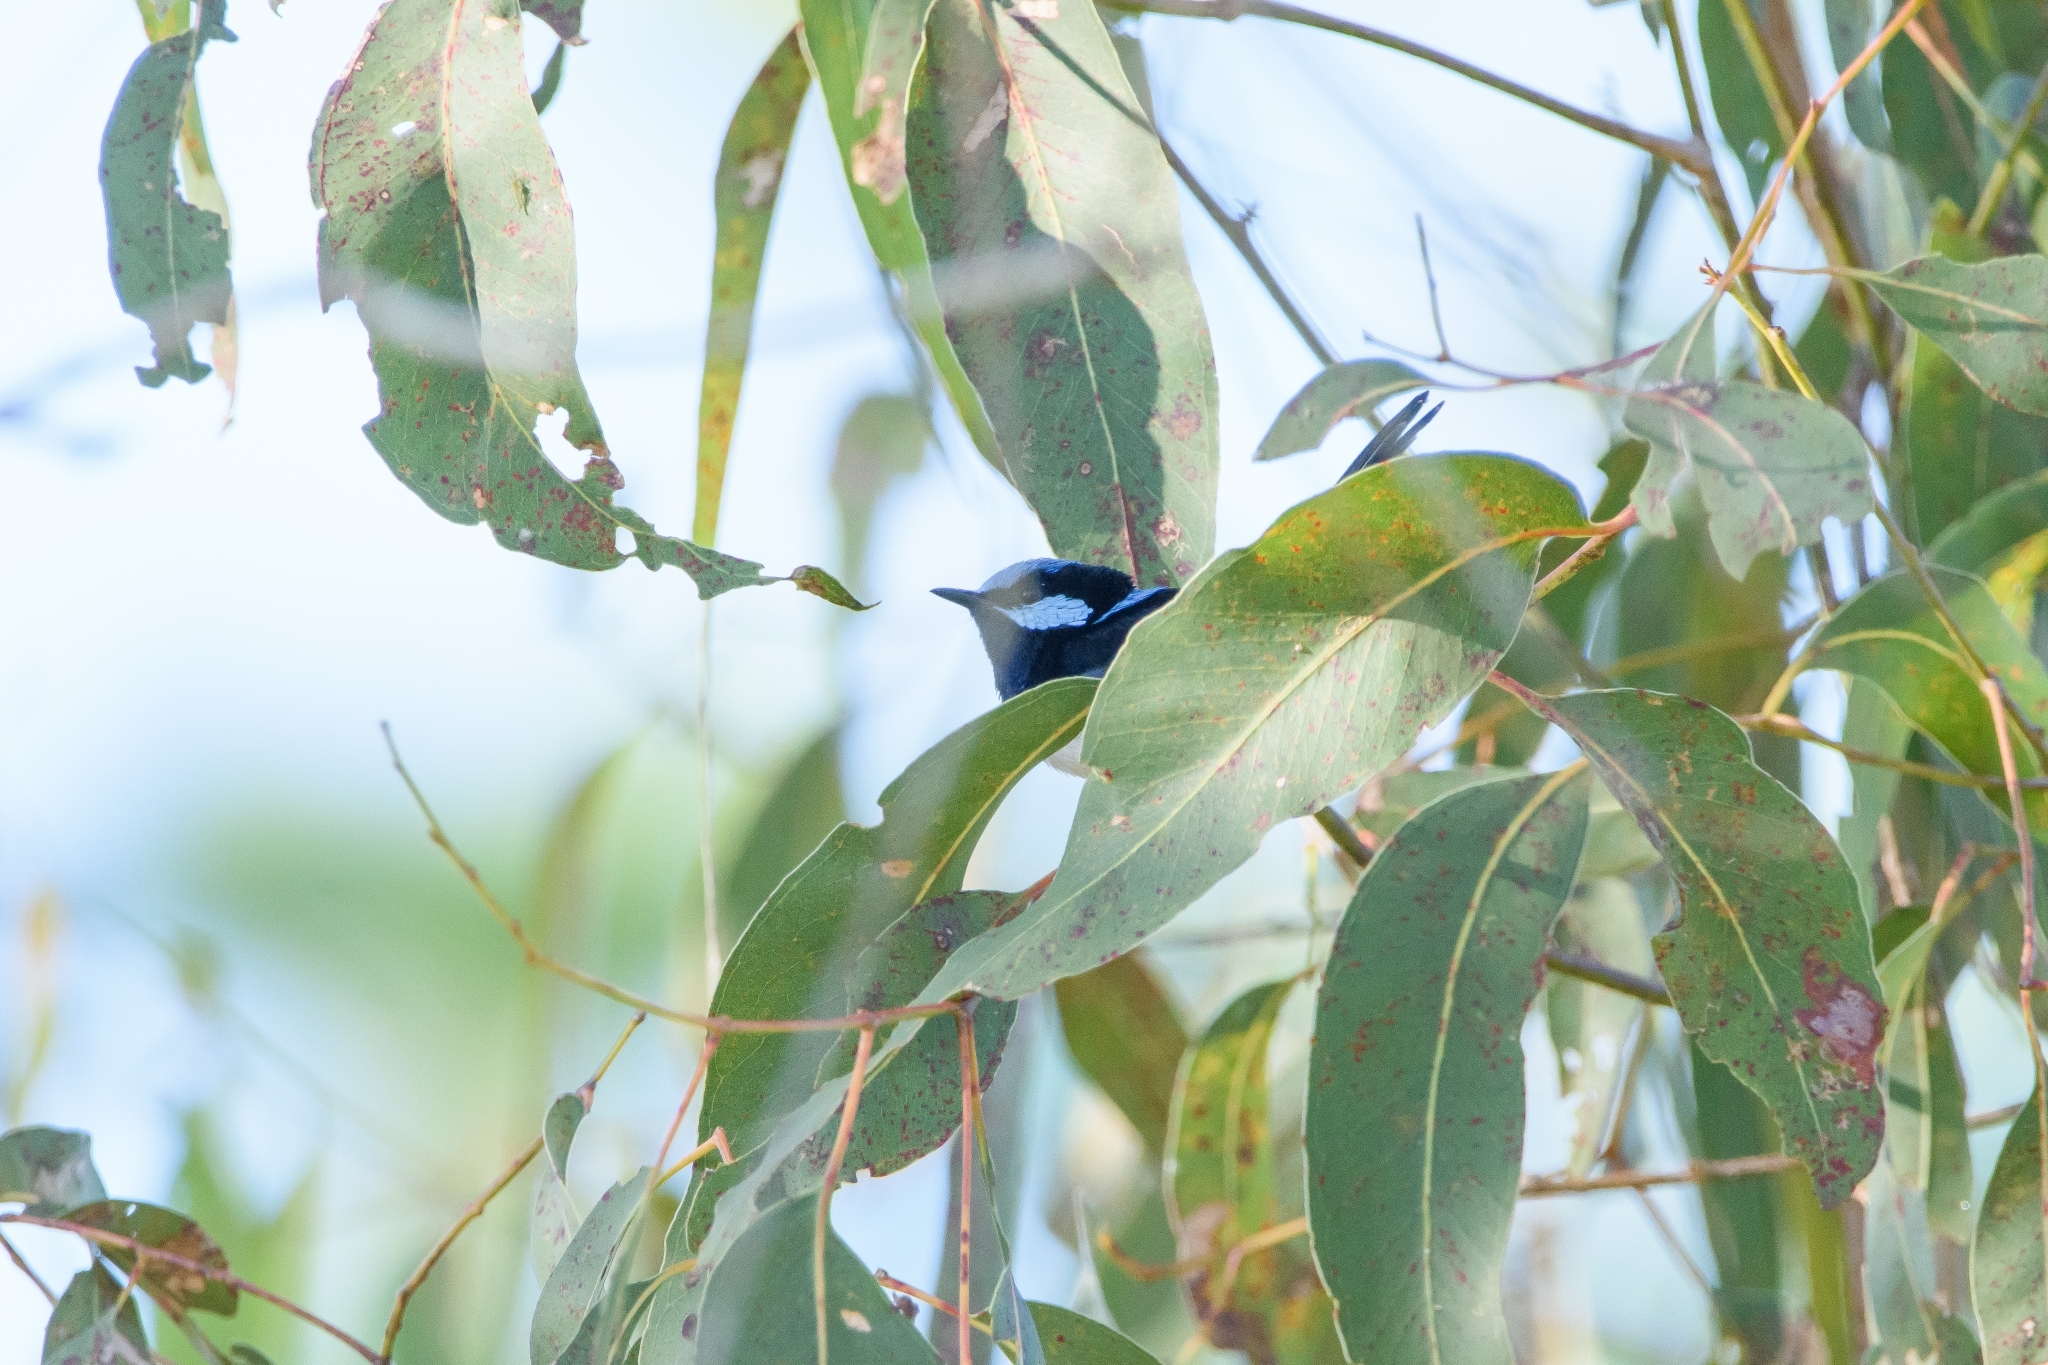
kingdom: Animalia
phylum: Chordata
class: Aves
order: Passeriformes
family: Maluridae
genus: Malurus
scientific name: Malurus cyaneus
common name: Superb fairywren
